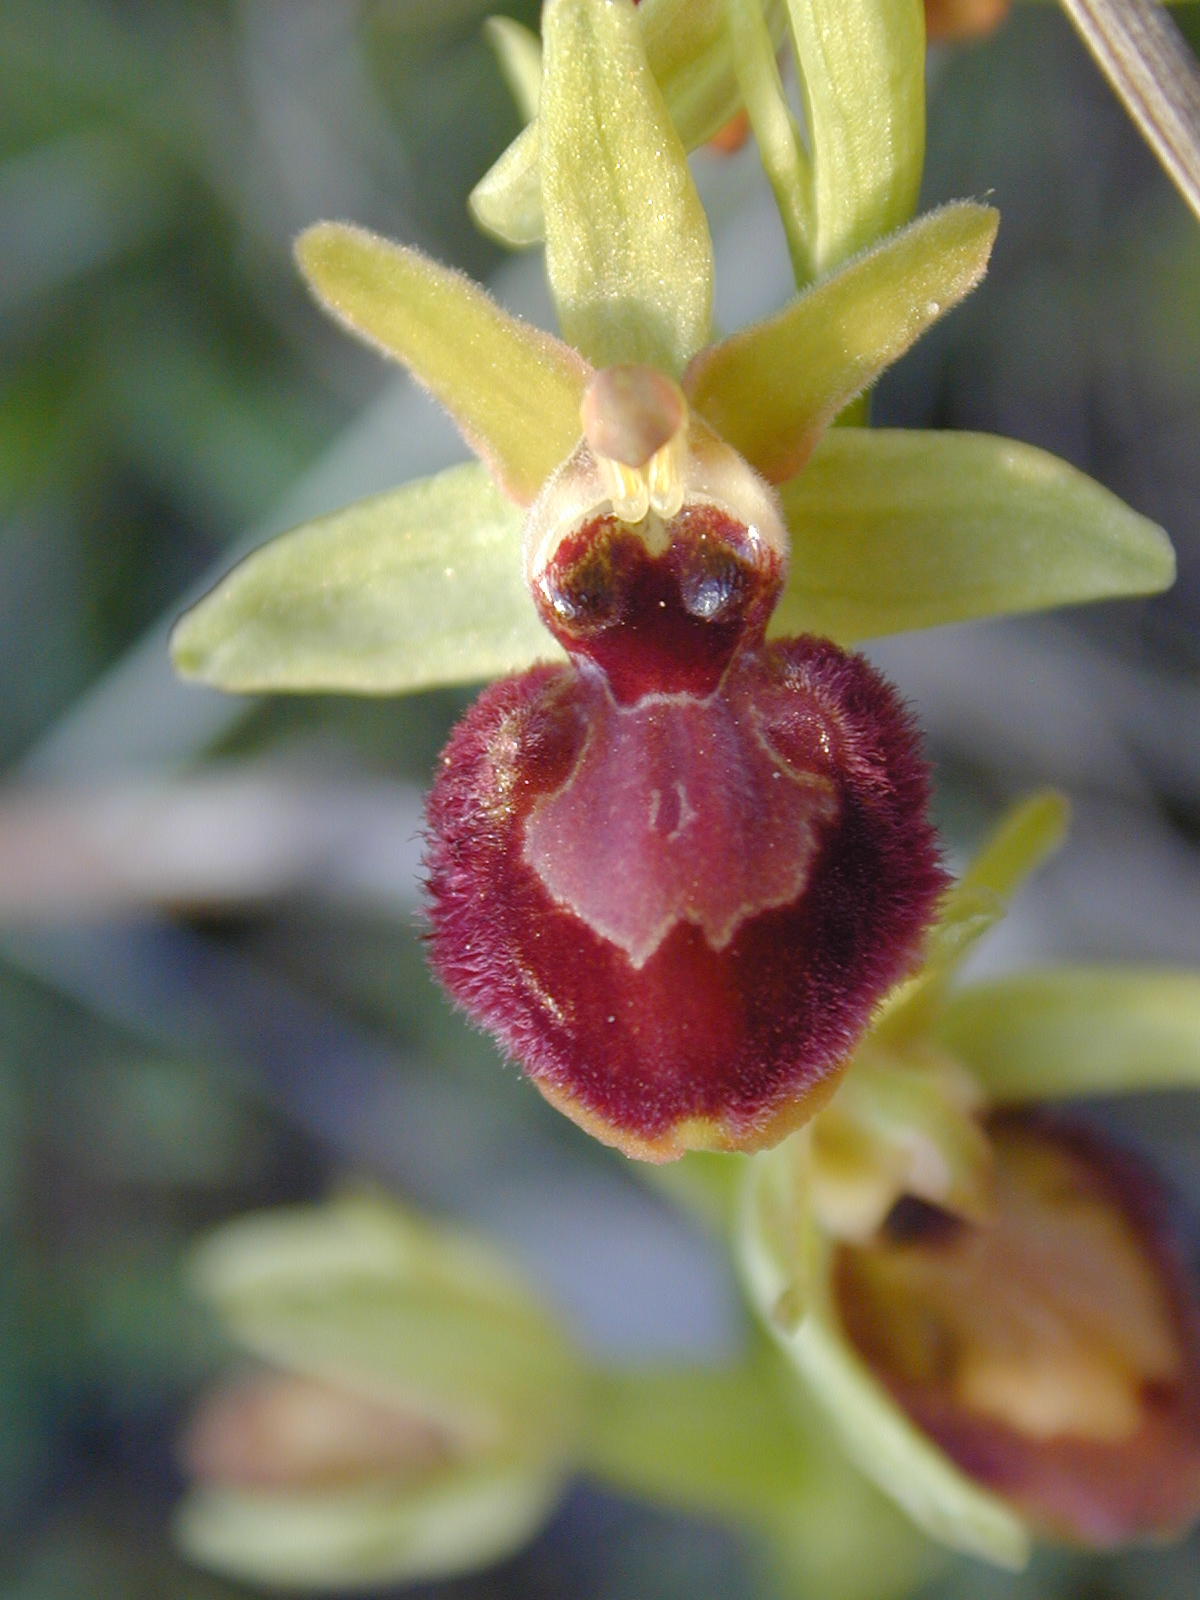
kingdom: Plantae
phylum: Tracheophyta
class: Liliopsida
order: Asparagales
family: Orchidaceae
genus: Ophrys
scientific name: Ophrys sphegodes
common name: Early spider-orchid
